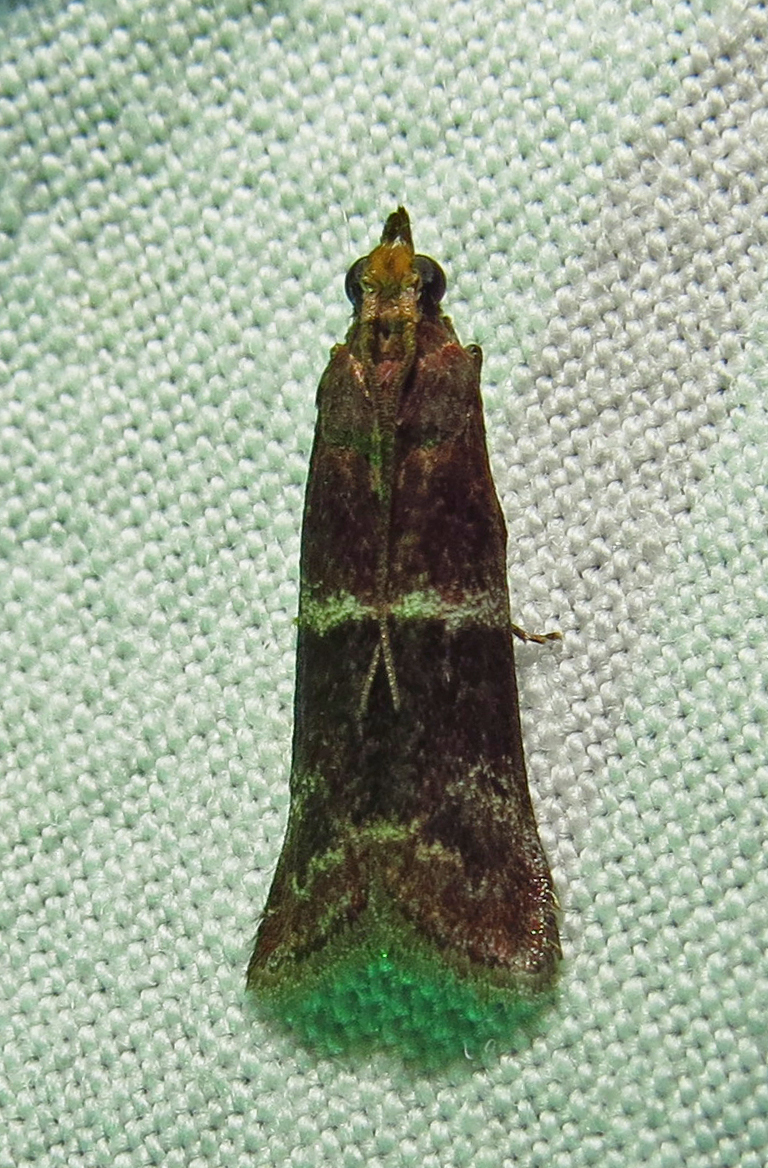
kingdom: Animalia
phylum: Arthropoda
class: Insecta
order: Lepidoptera
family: Pyralidae
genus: Moodna
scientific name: Moodna ostrinella
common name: Darker moodna moth
